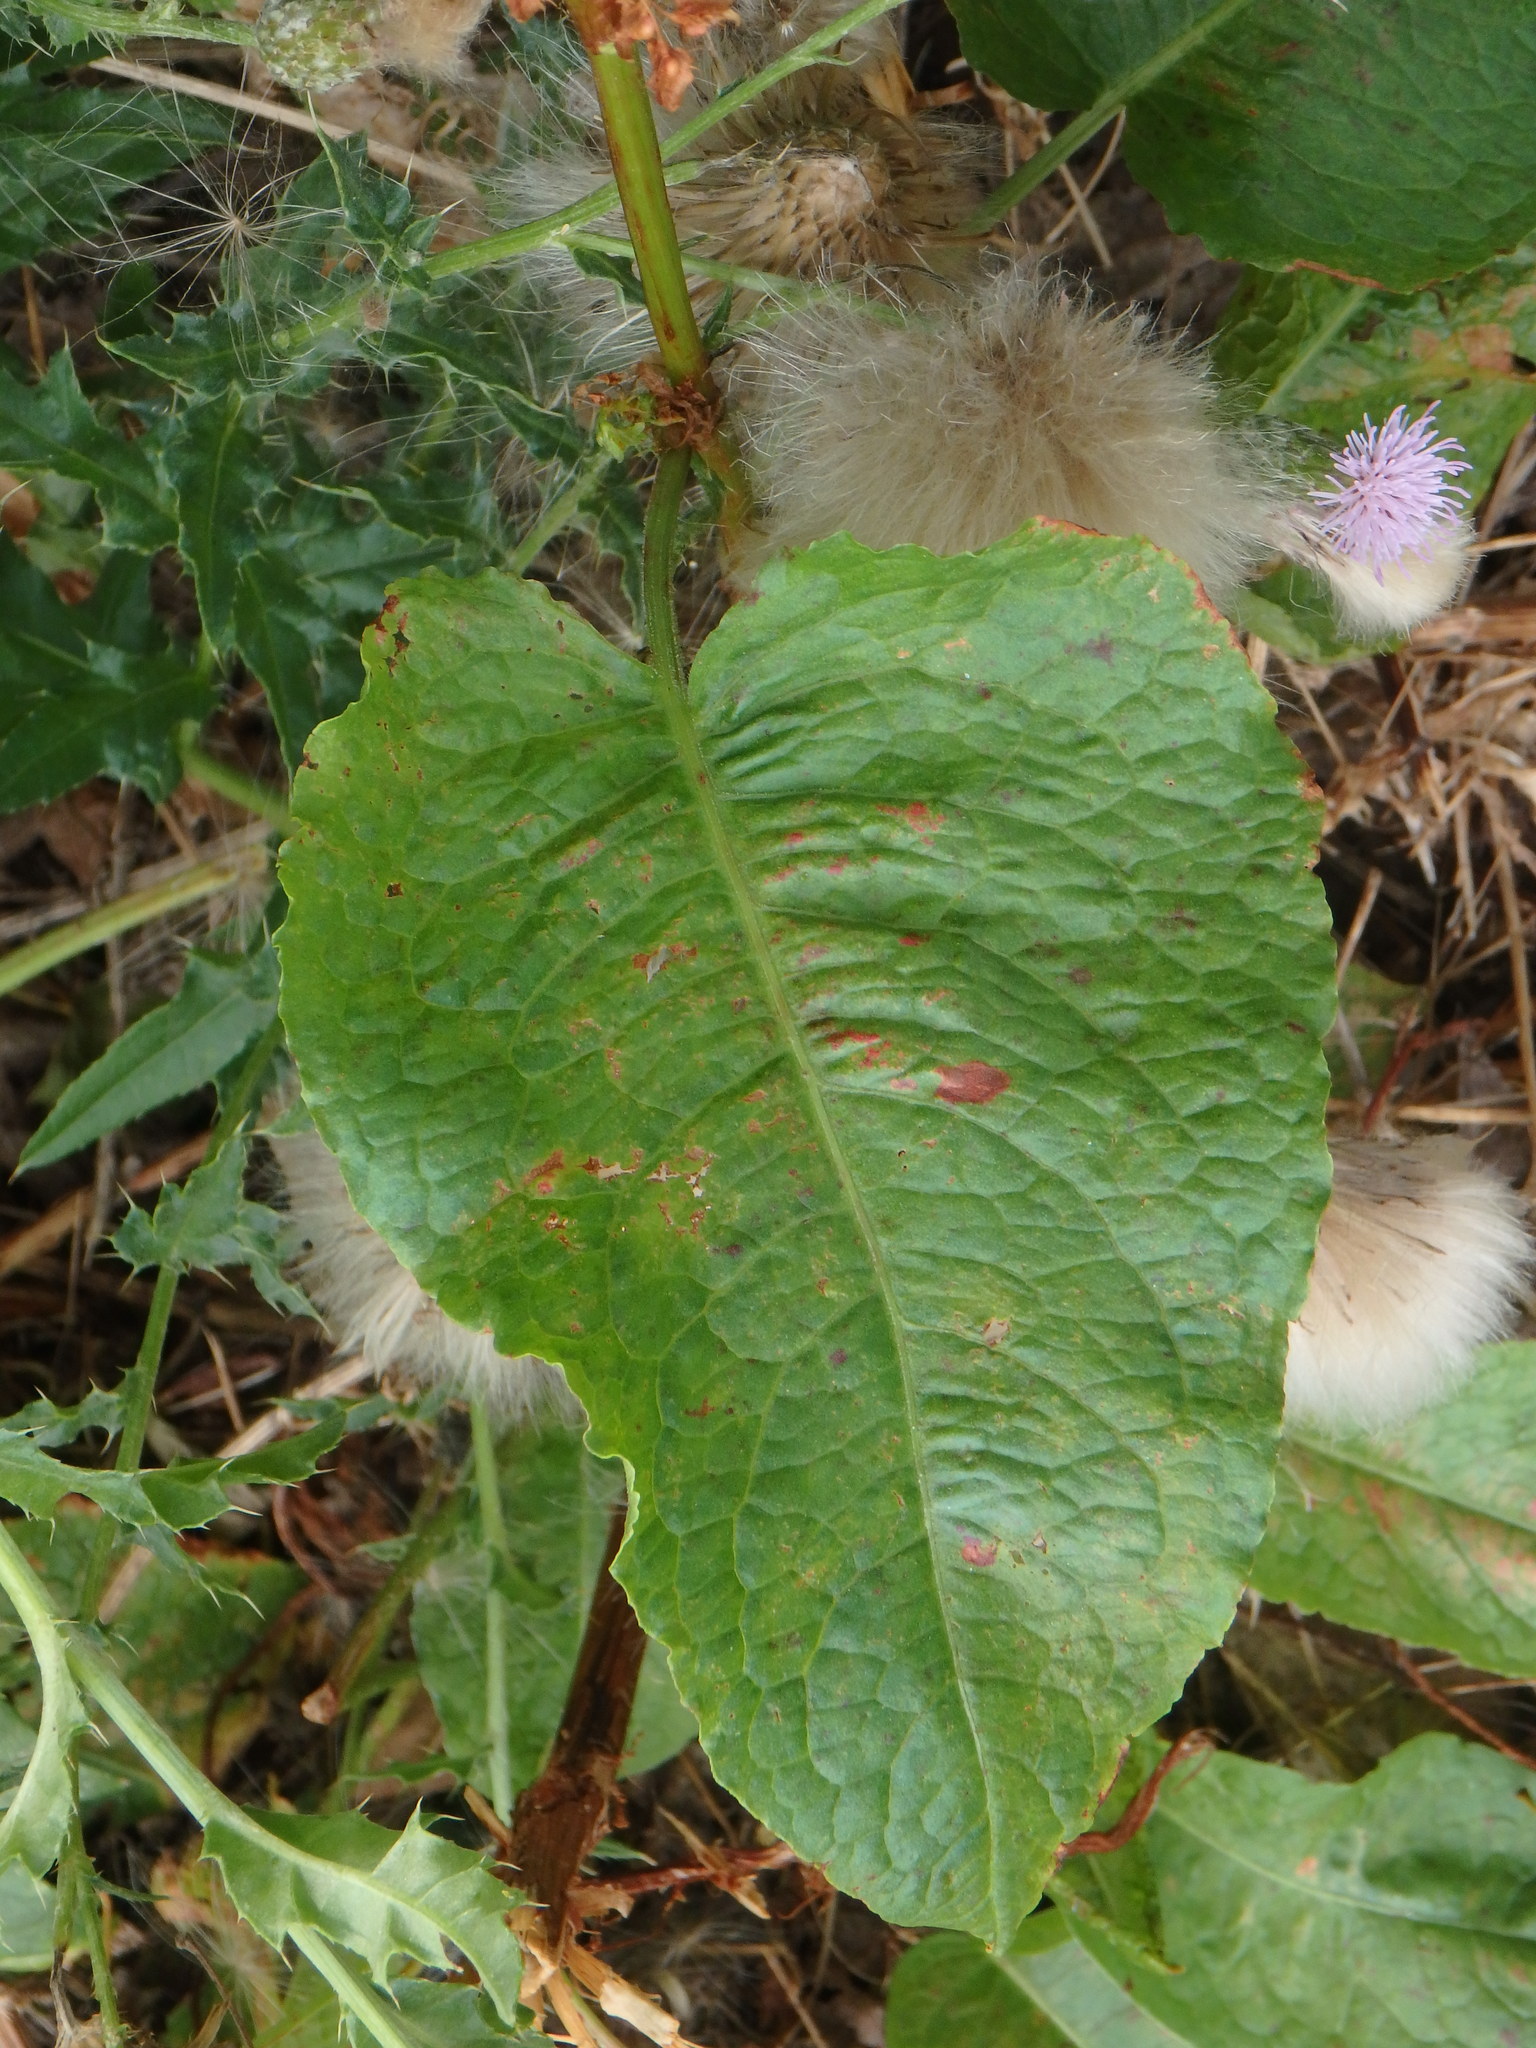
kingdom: Plantae
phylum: Tracheophyta
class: Magnoliopsida
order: Caryophyllales
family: Polygonaceae
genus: Rumex
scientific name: Rumex obtusifolius
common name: Bitter dock
